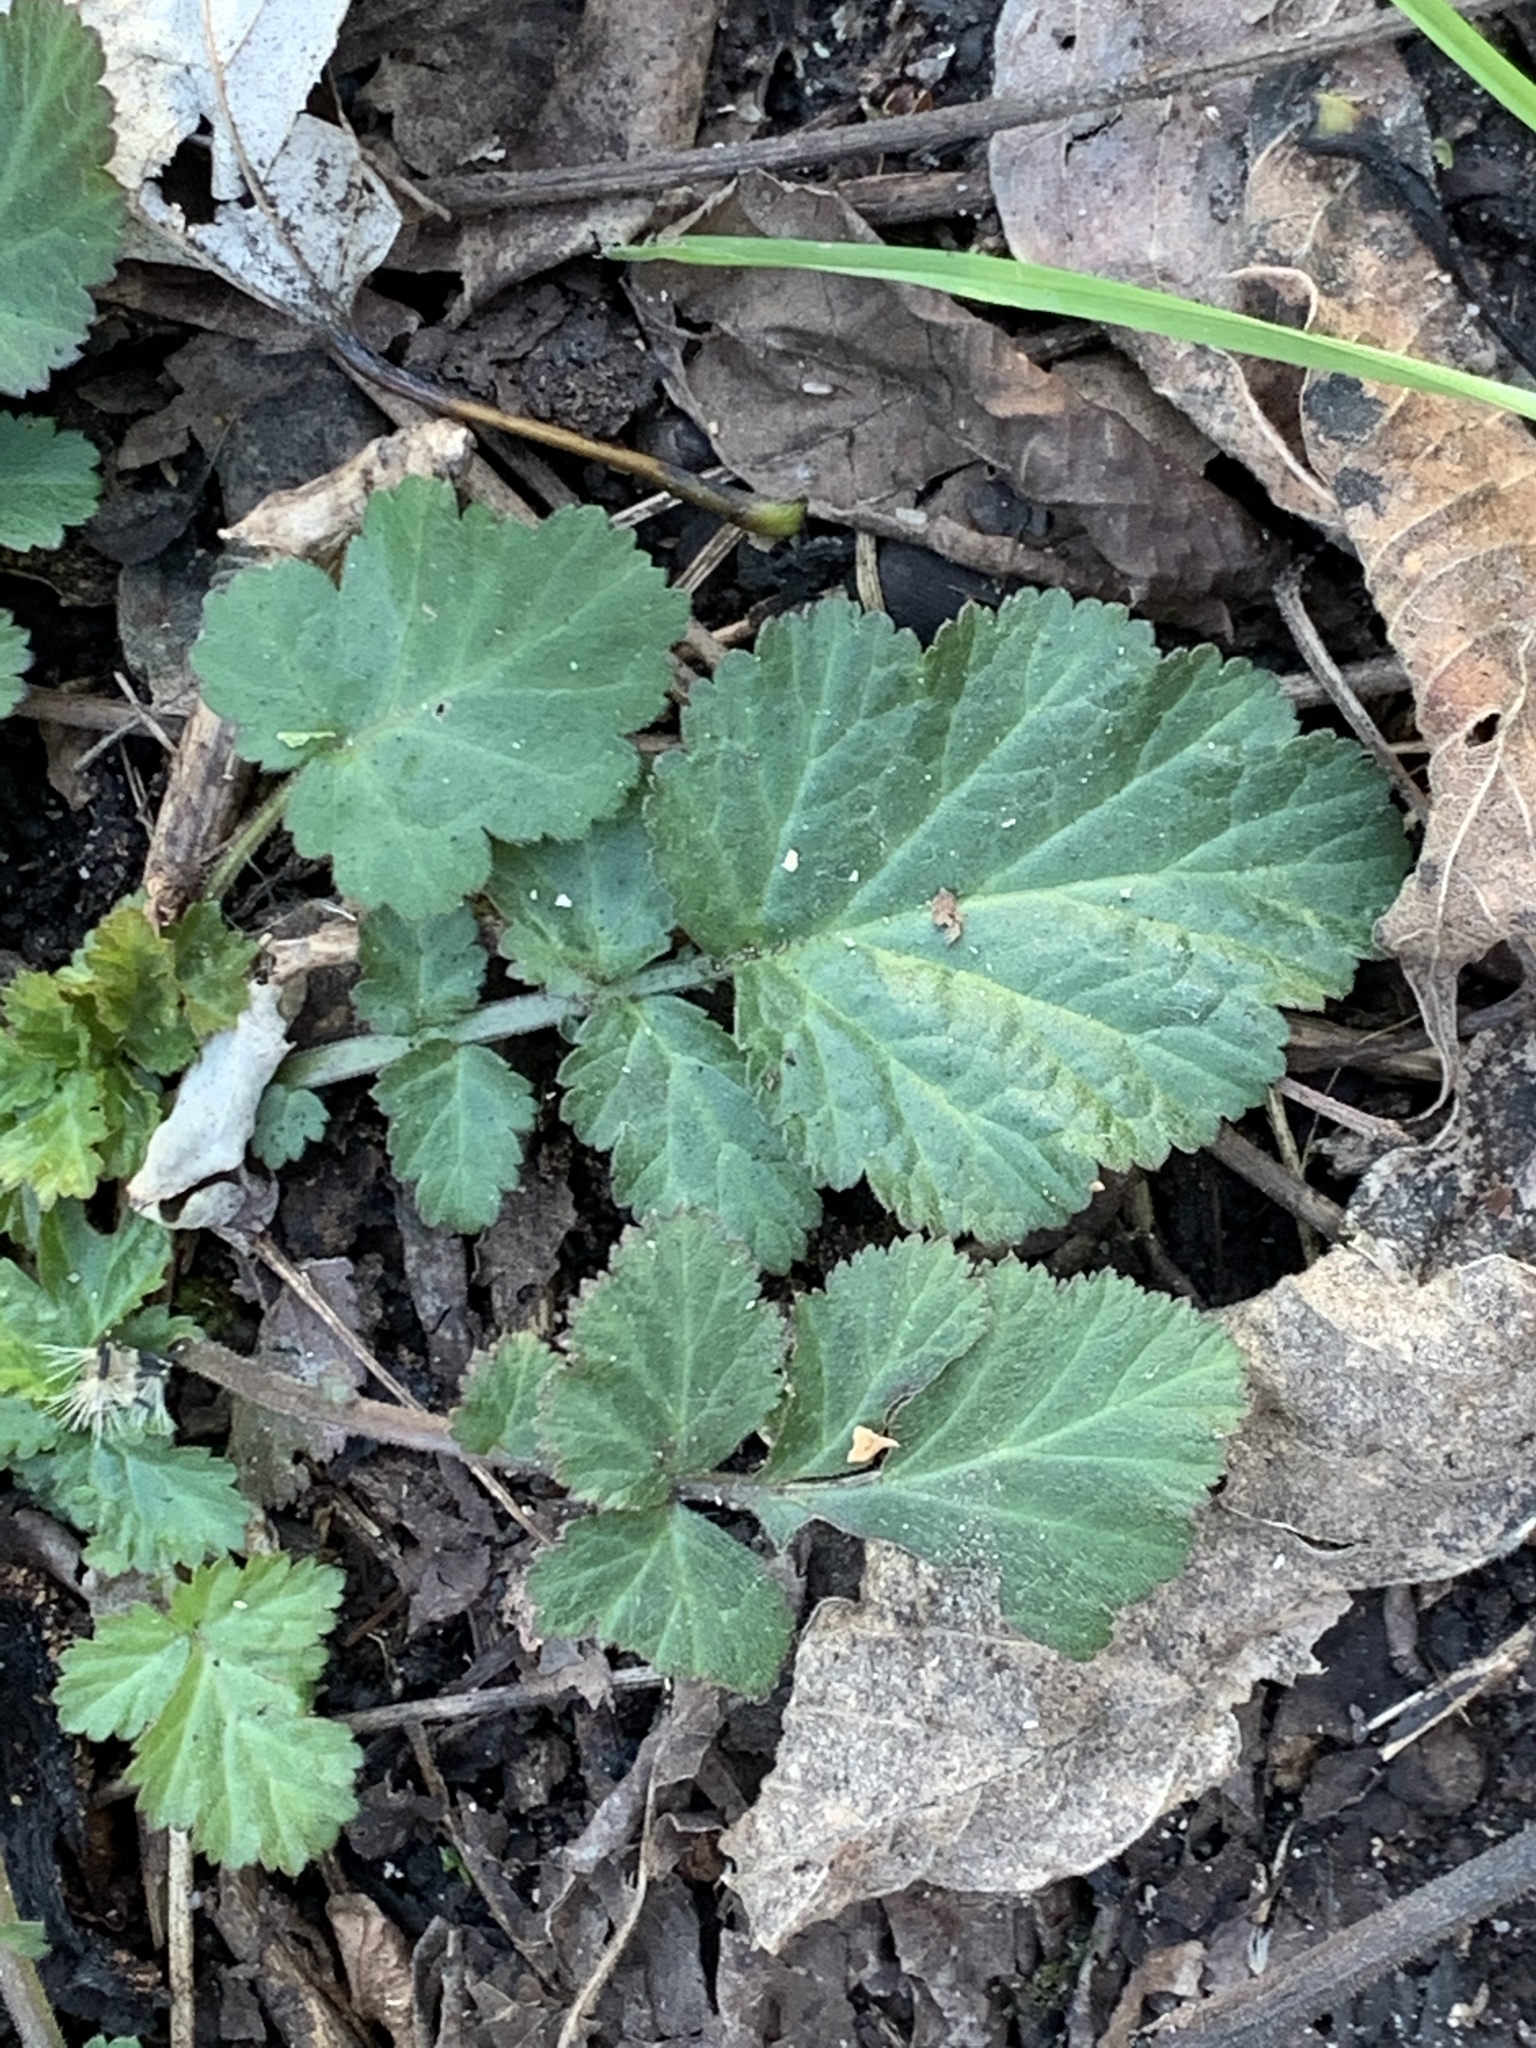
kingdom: Plantae
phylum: Tracheophyta
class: Magnoliopsida
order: Rosales
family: Rosaceae
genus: Geum
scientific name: Geum canadense
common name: White avens
